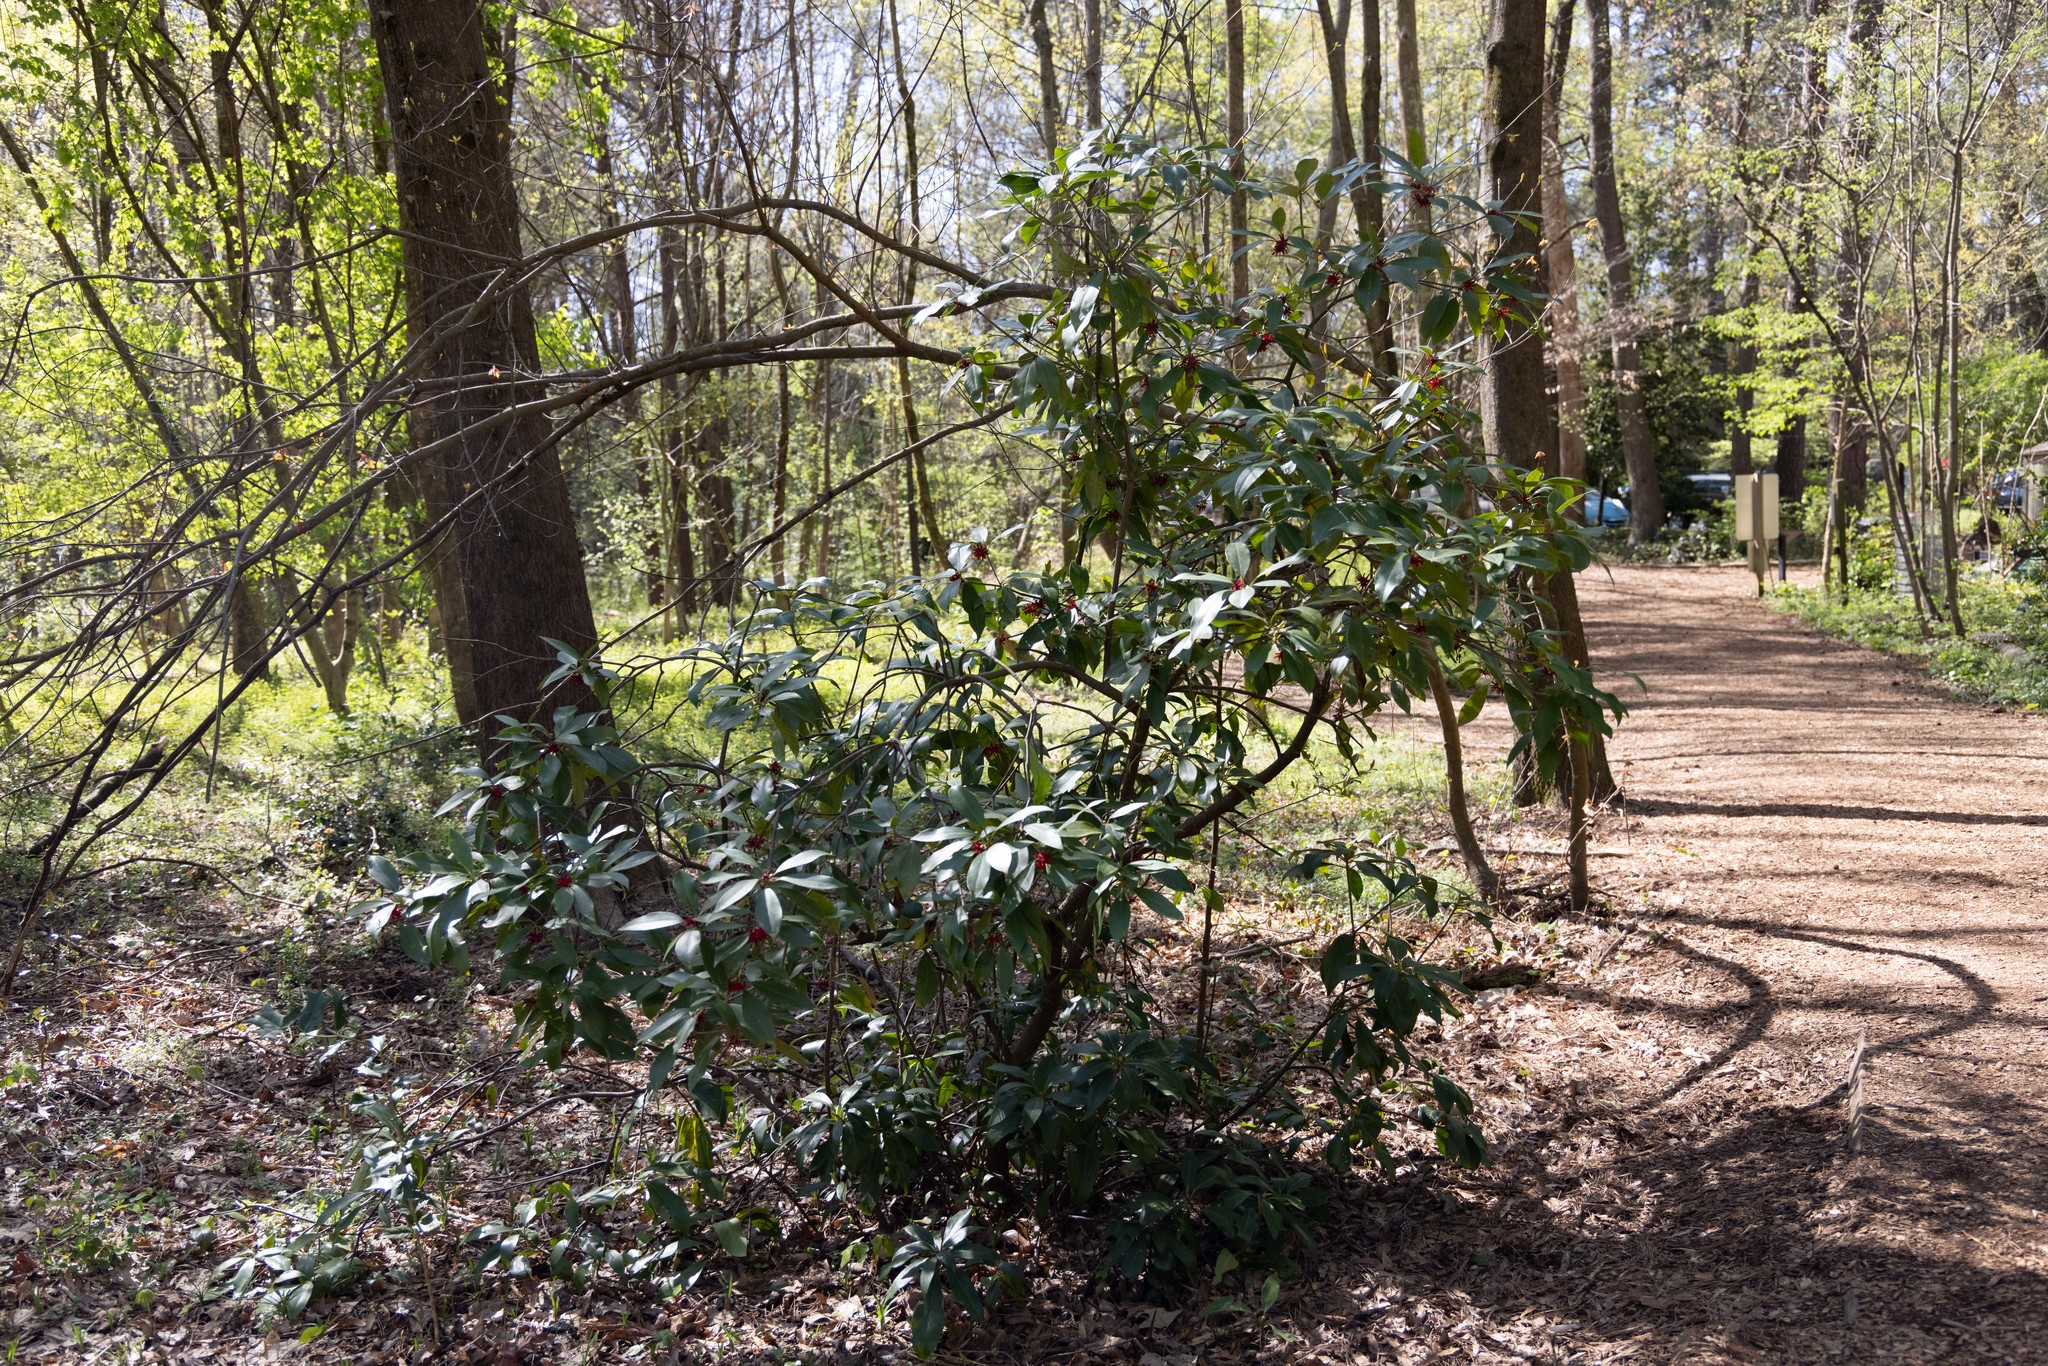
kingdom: Plantae
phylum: Tracheophyta
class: Magnoliopsida
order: Austrobaileyales
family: Schisandraceae
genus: Illicium
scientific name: Illicium floridanum
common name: Florida anisetree
